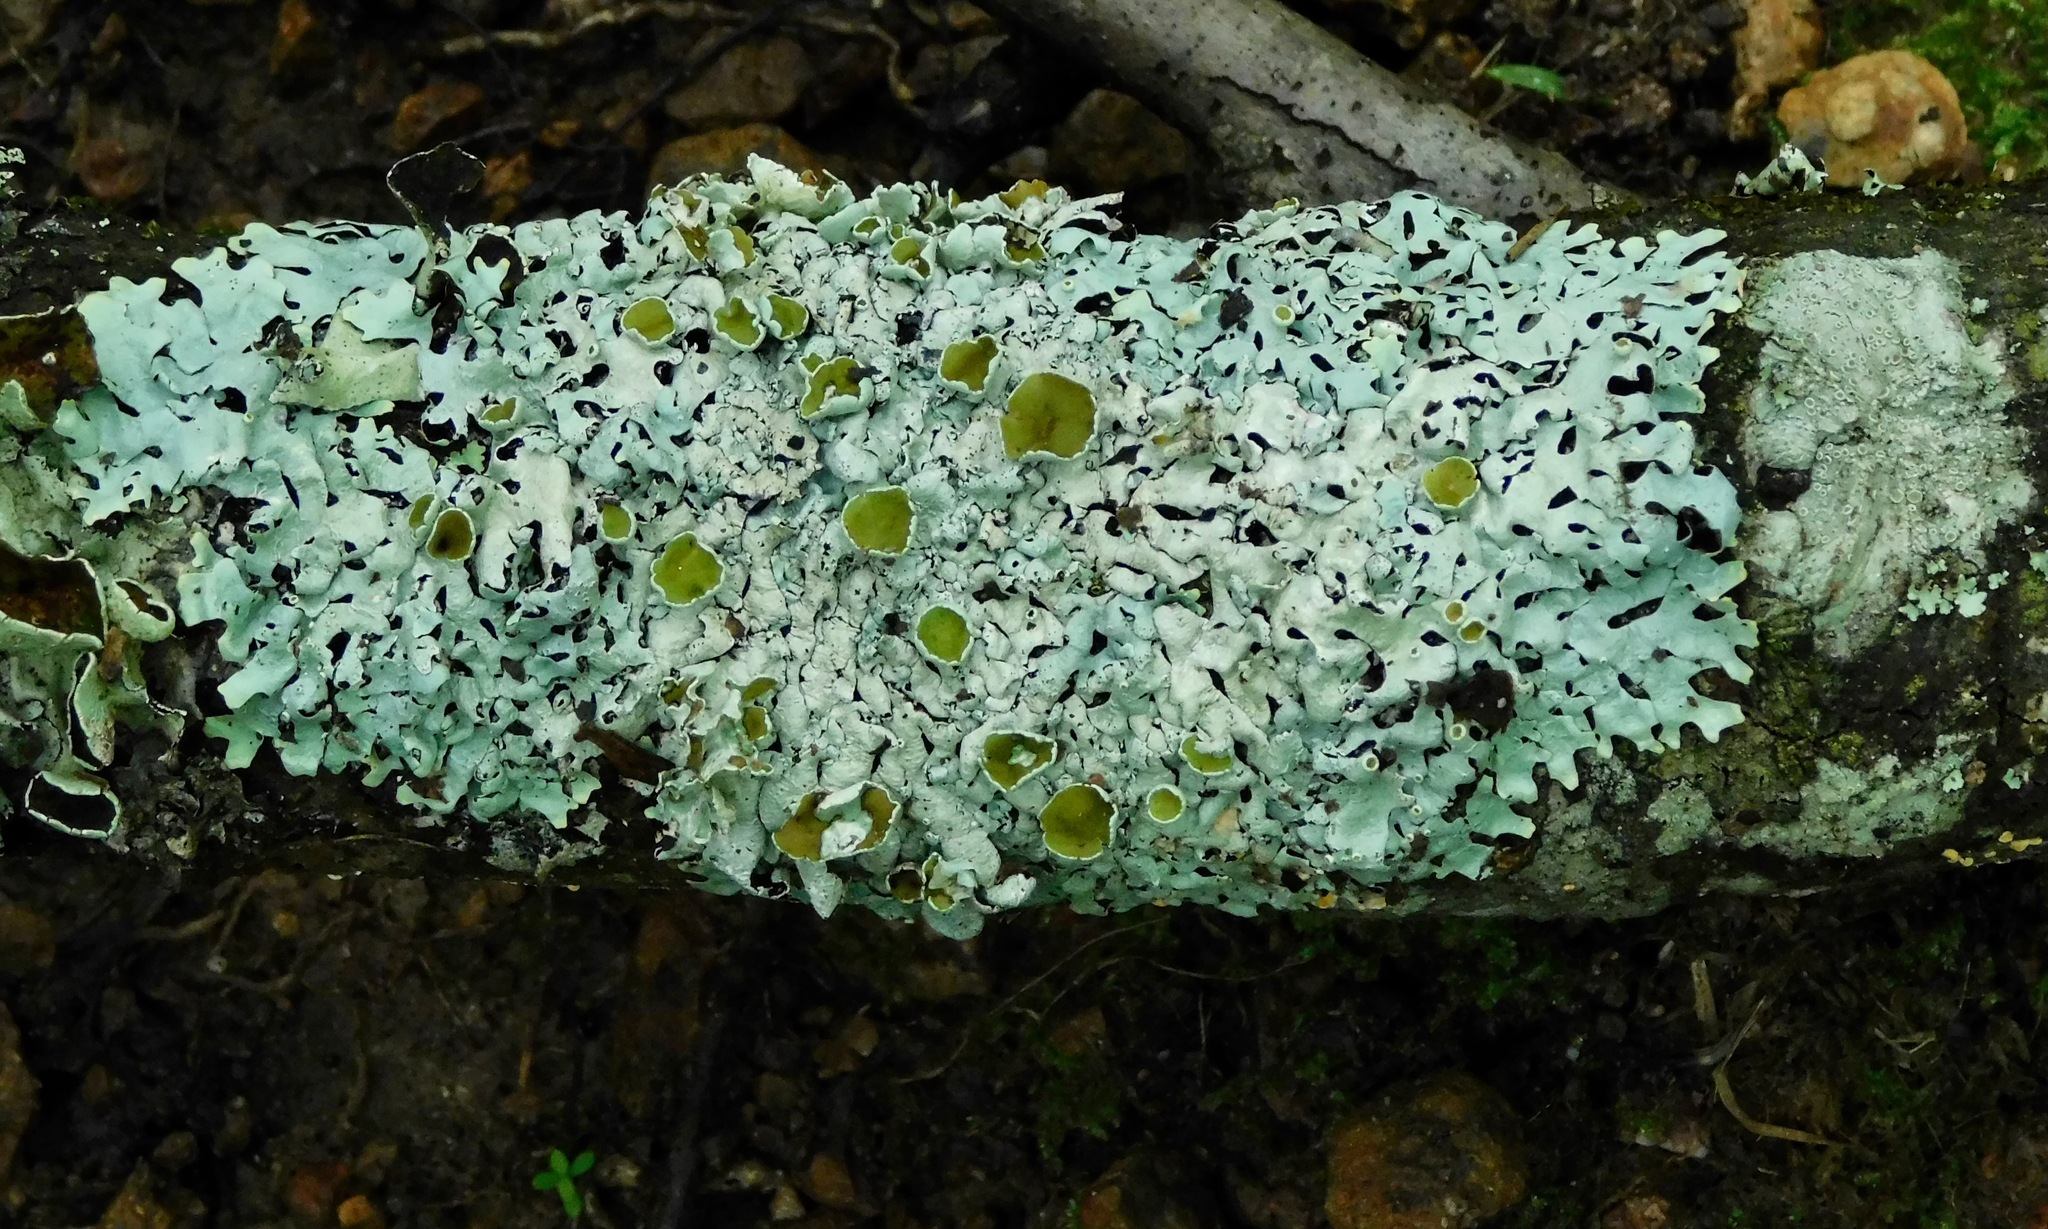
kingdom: Fungi
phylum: Ascomycota
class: Lecanoromycetes
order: Lecanorales
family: Parmeliaceae
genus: Hypotrachyna
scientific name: Hypotrachyna livida
